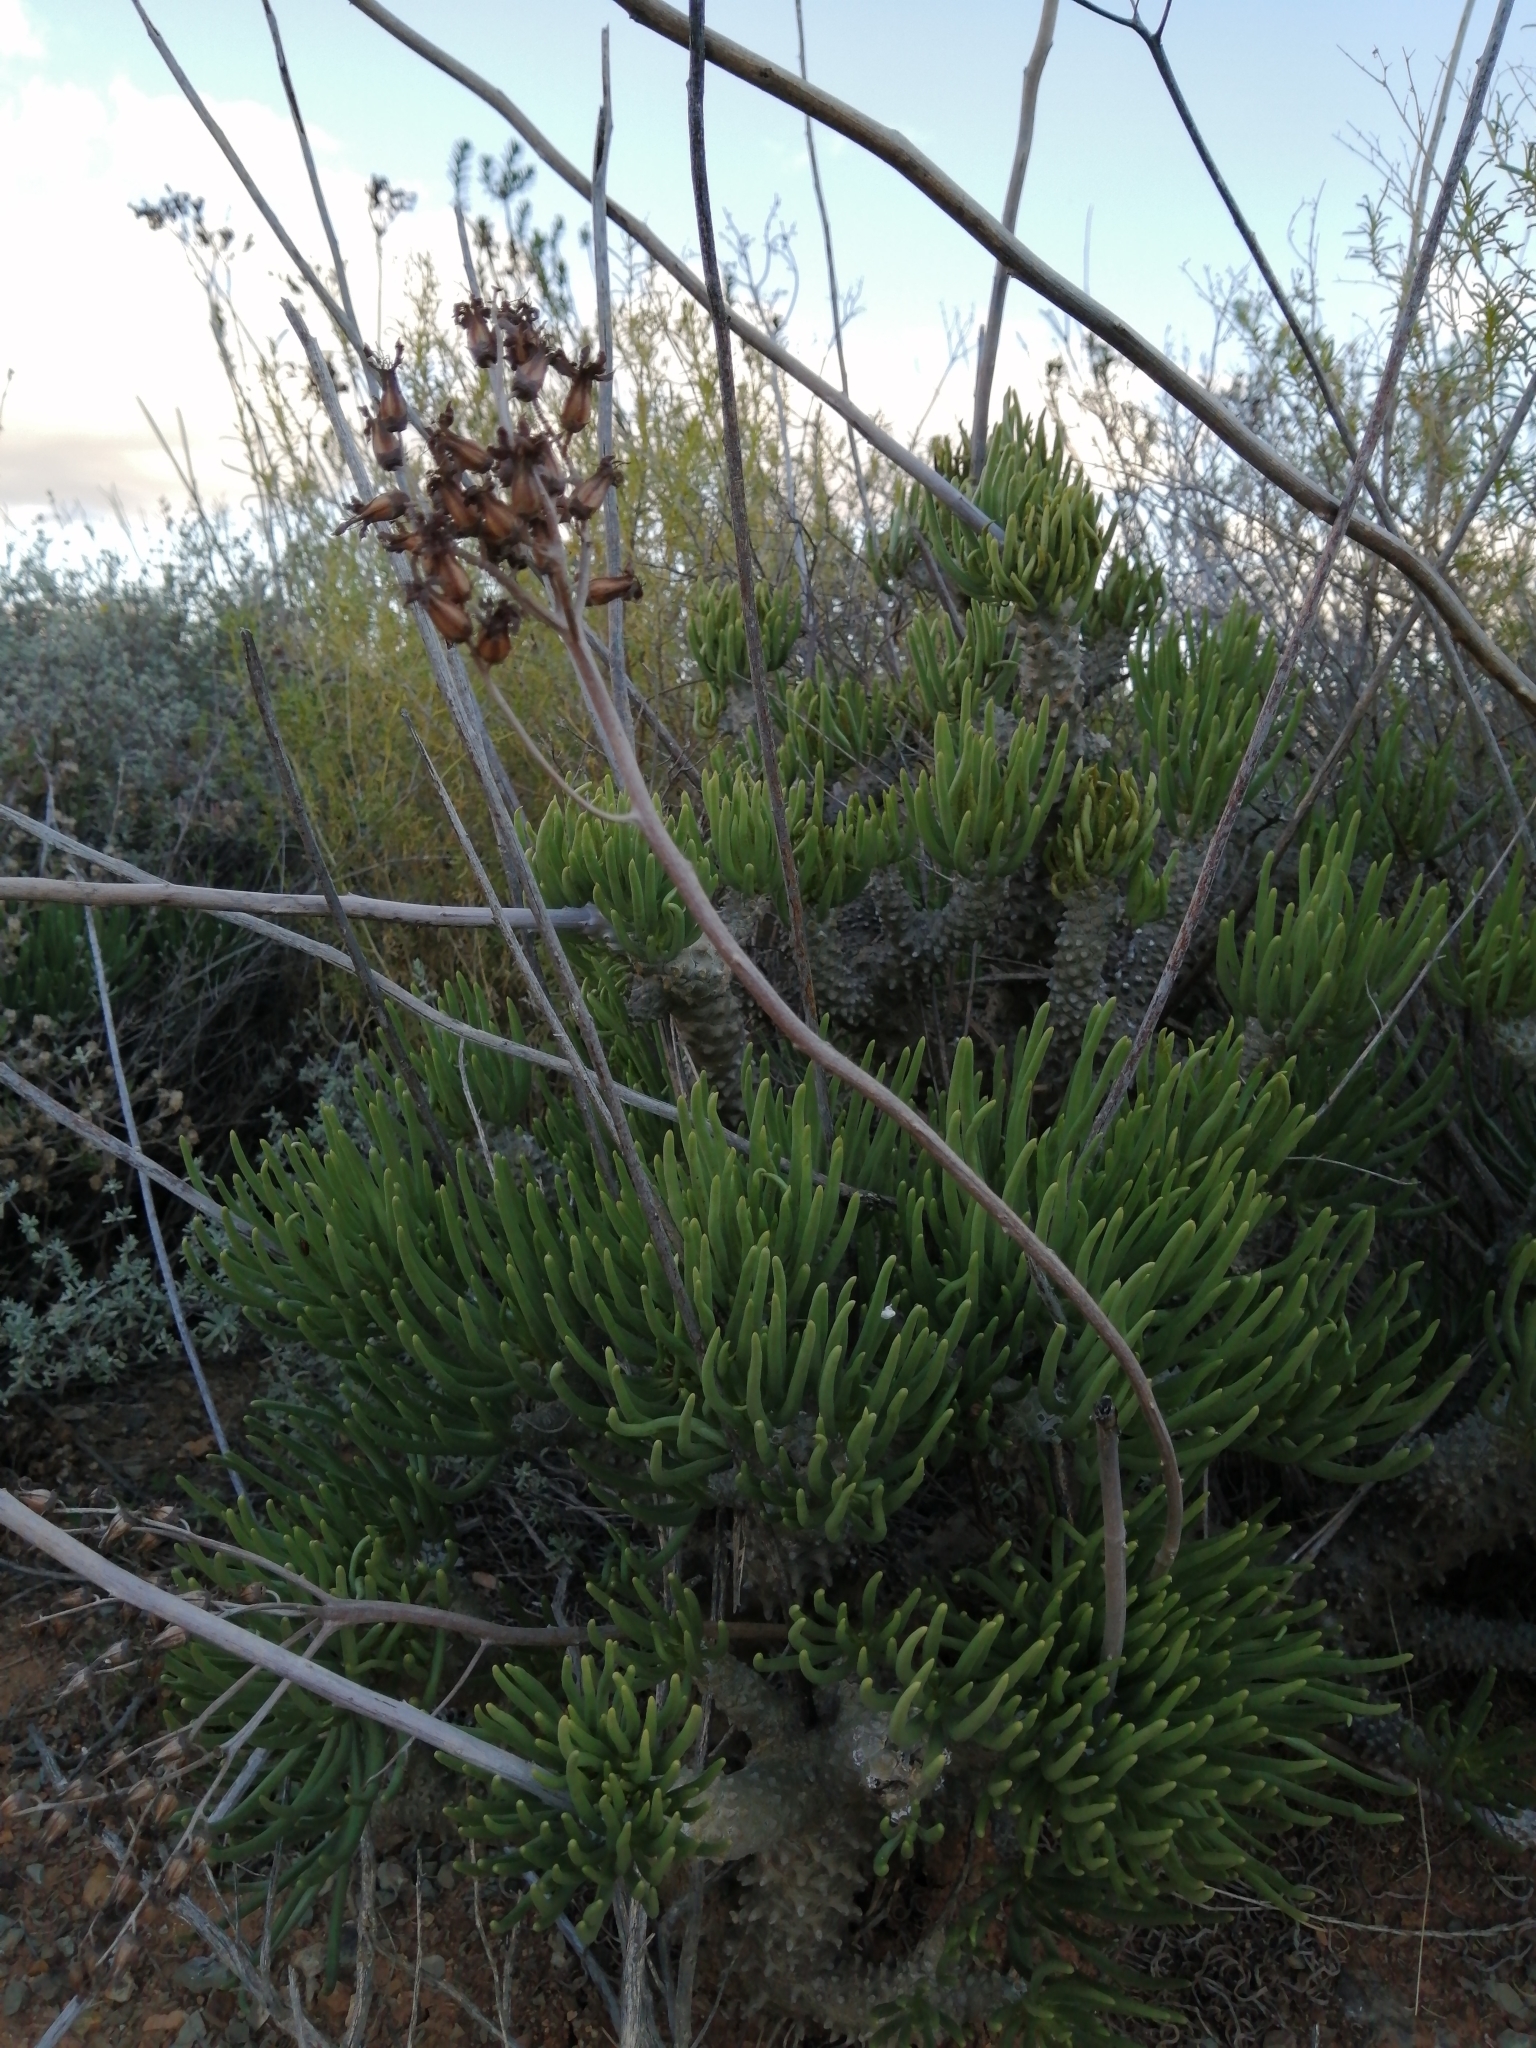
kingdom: Plantae
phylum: Tracheophyta
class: Magnoliopsida
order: Saxifragales
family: Crassulaceae
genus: Tylecodon
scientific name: Tylecodon wallichii
